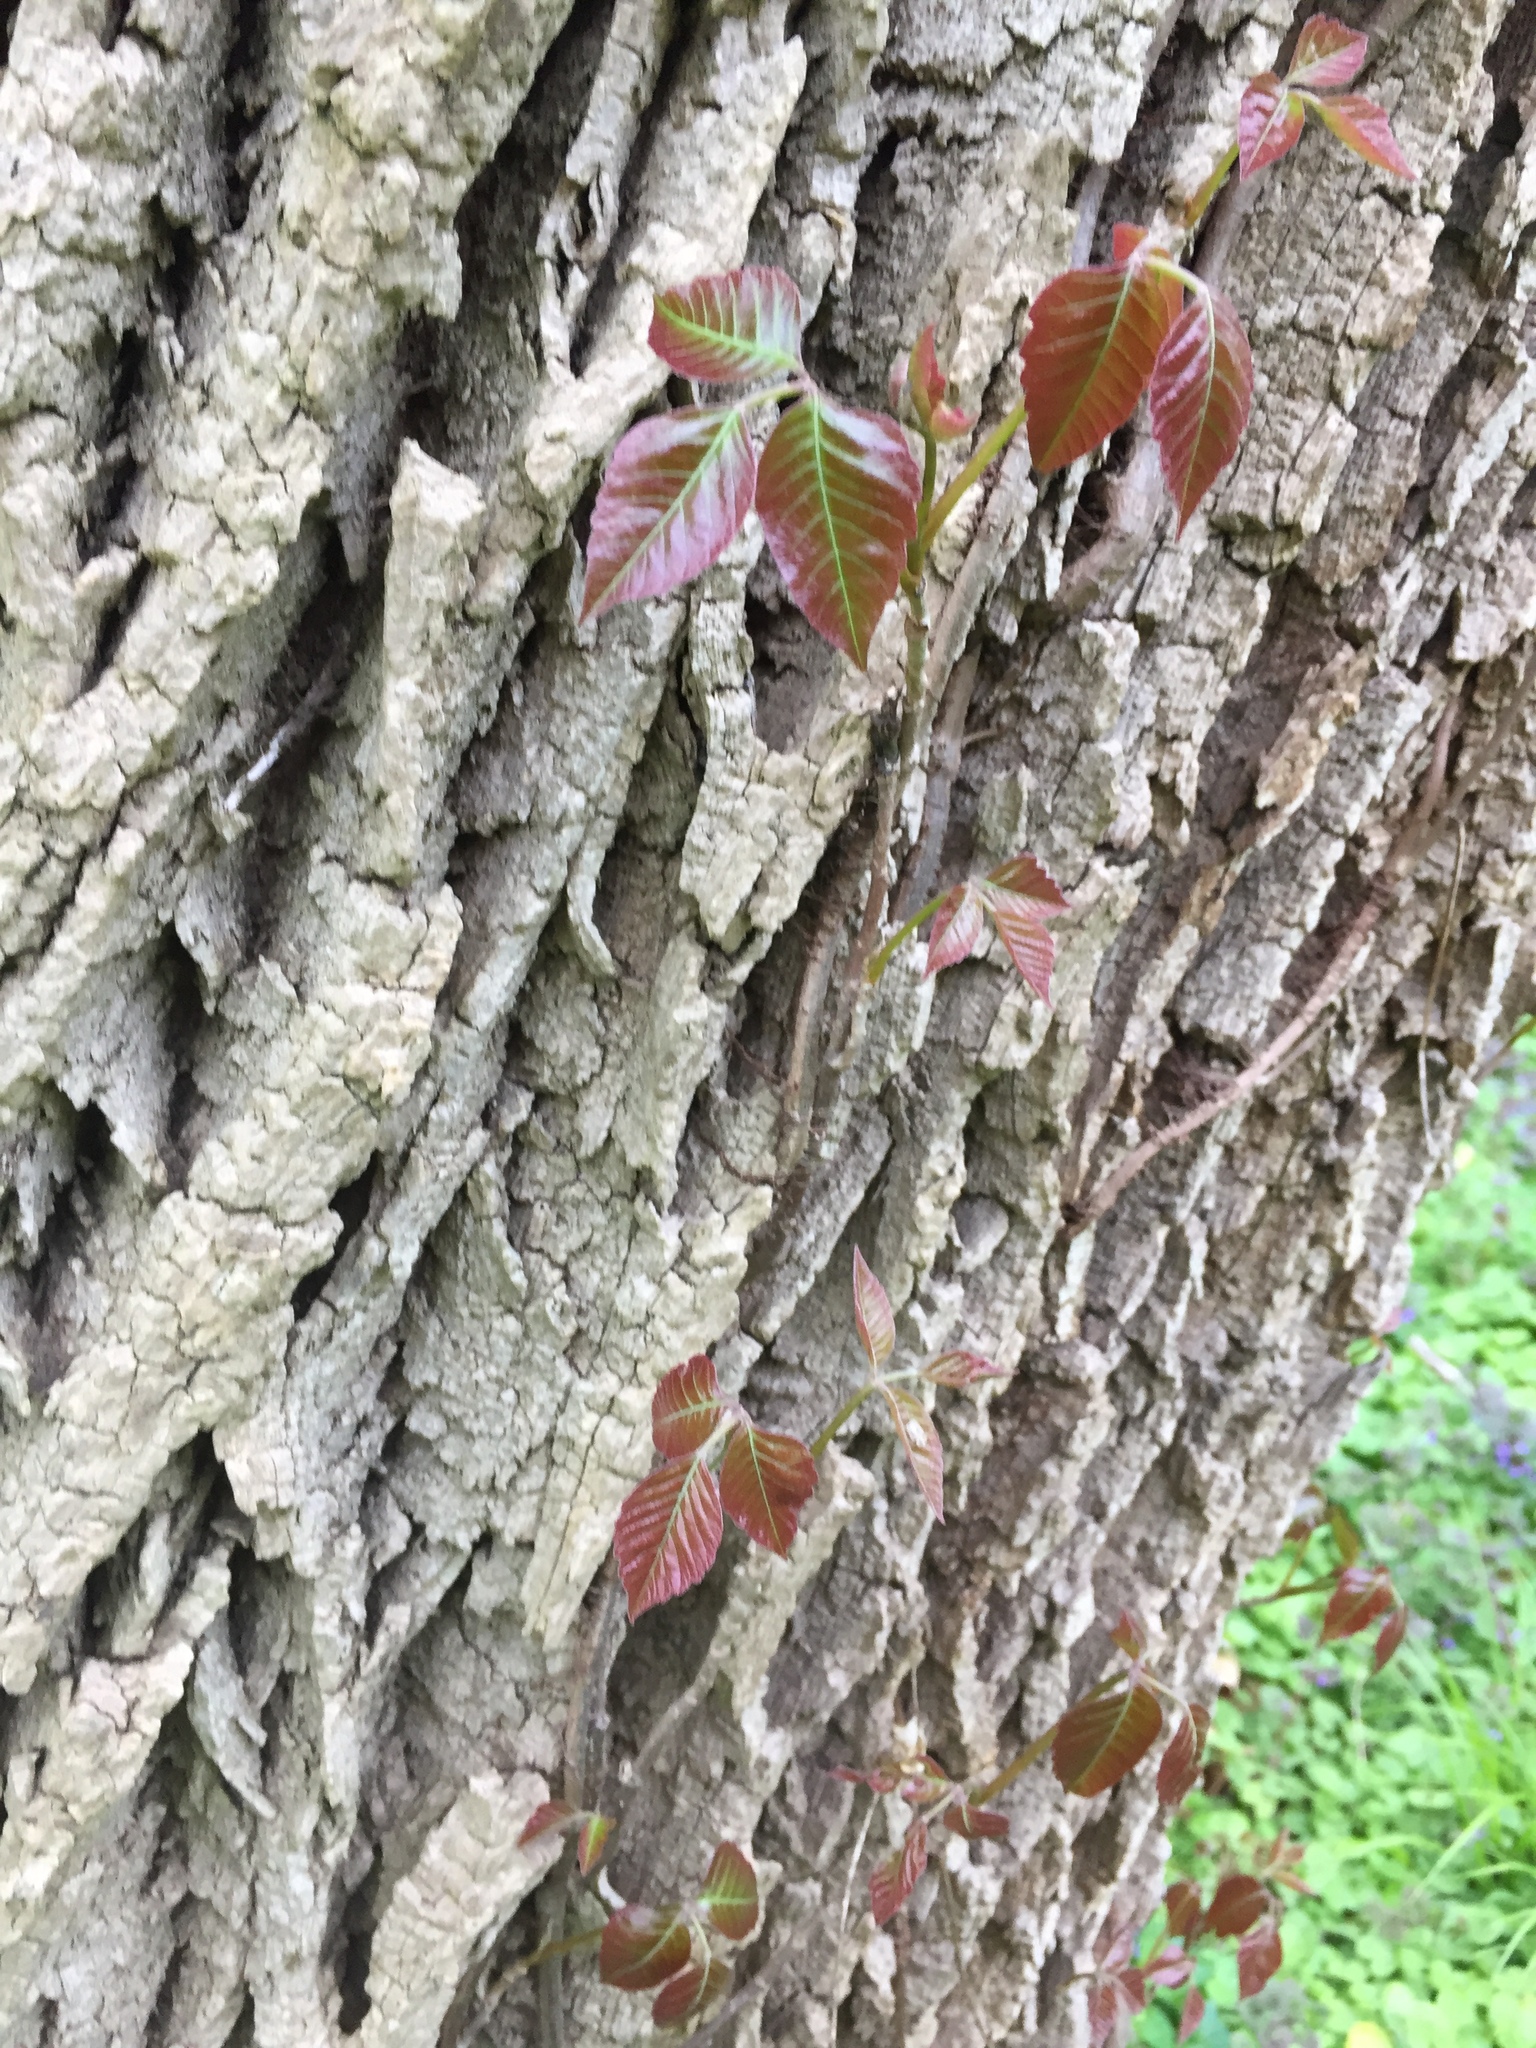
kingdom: Plantae
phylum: Tracheophyta
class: Magnoliopsida
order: Sapindales
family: Anacardiaceae
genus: Toxicodendron
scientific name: Toxicodendron radicans
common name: Poison ivy
